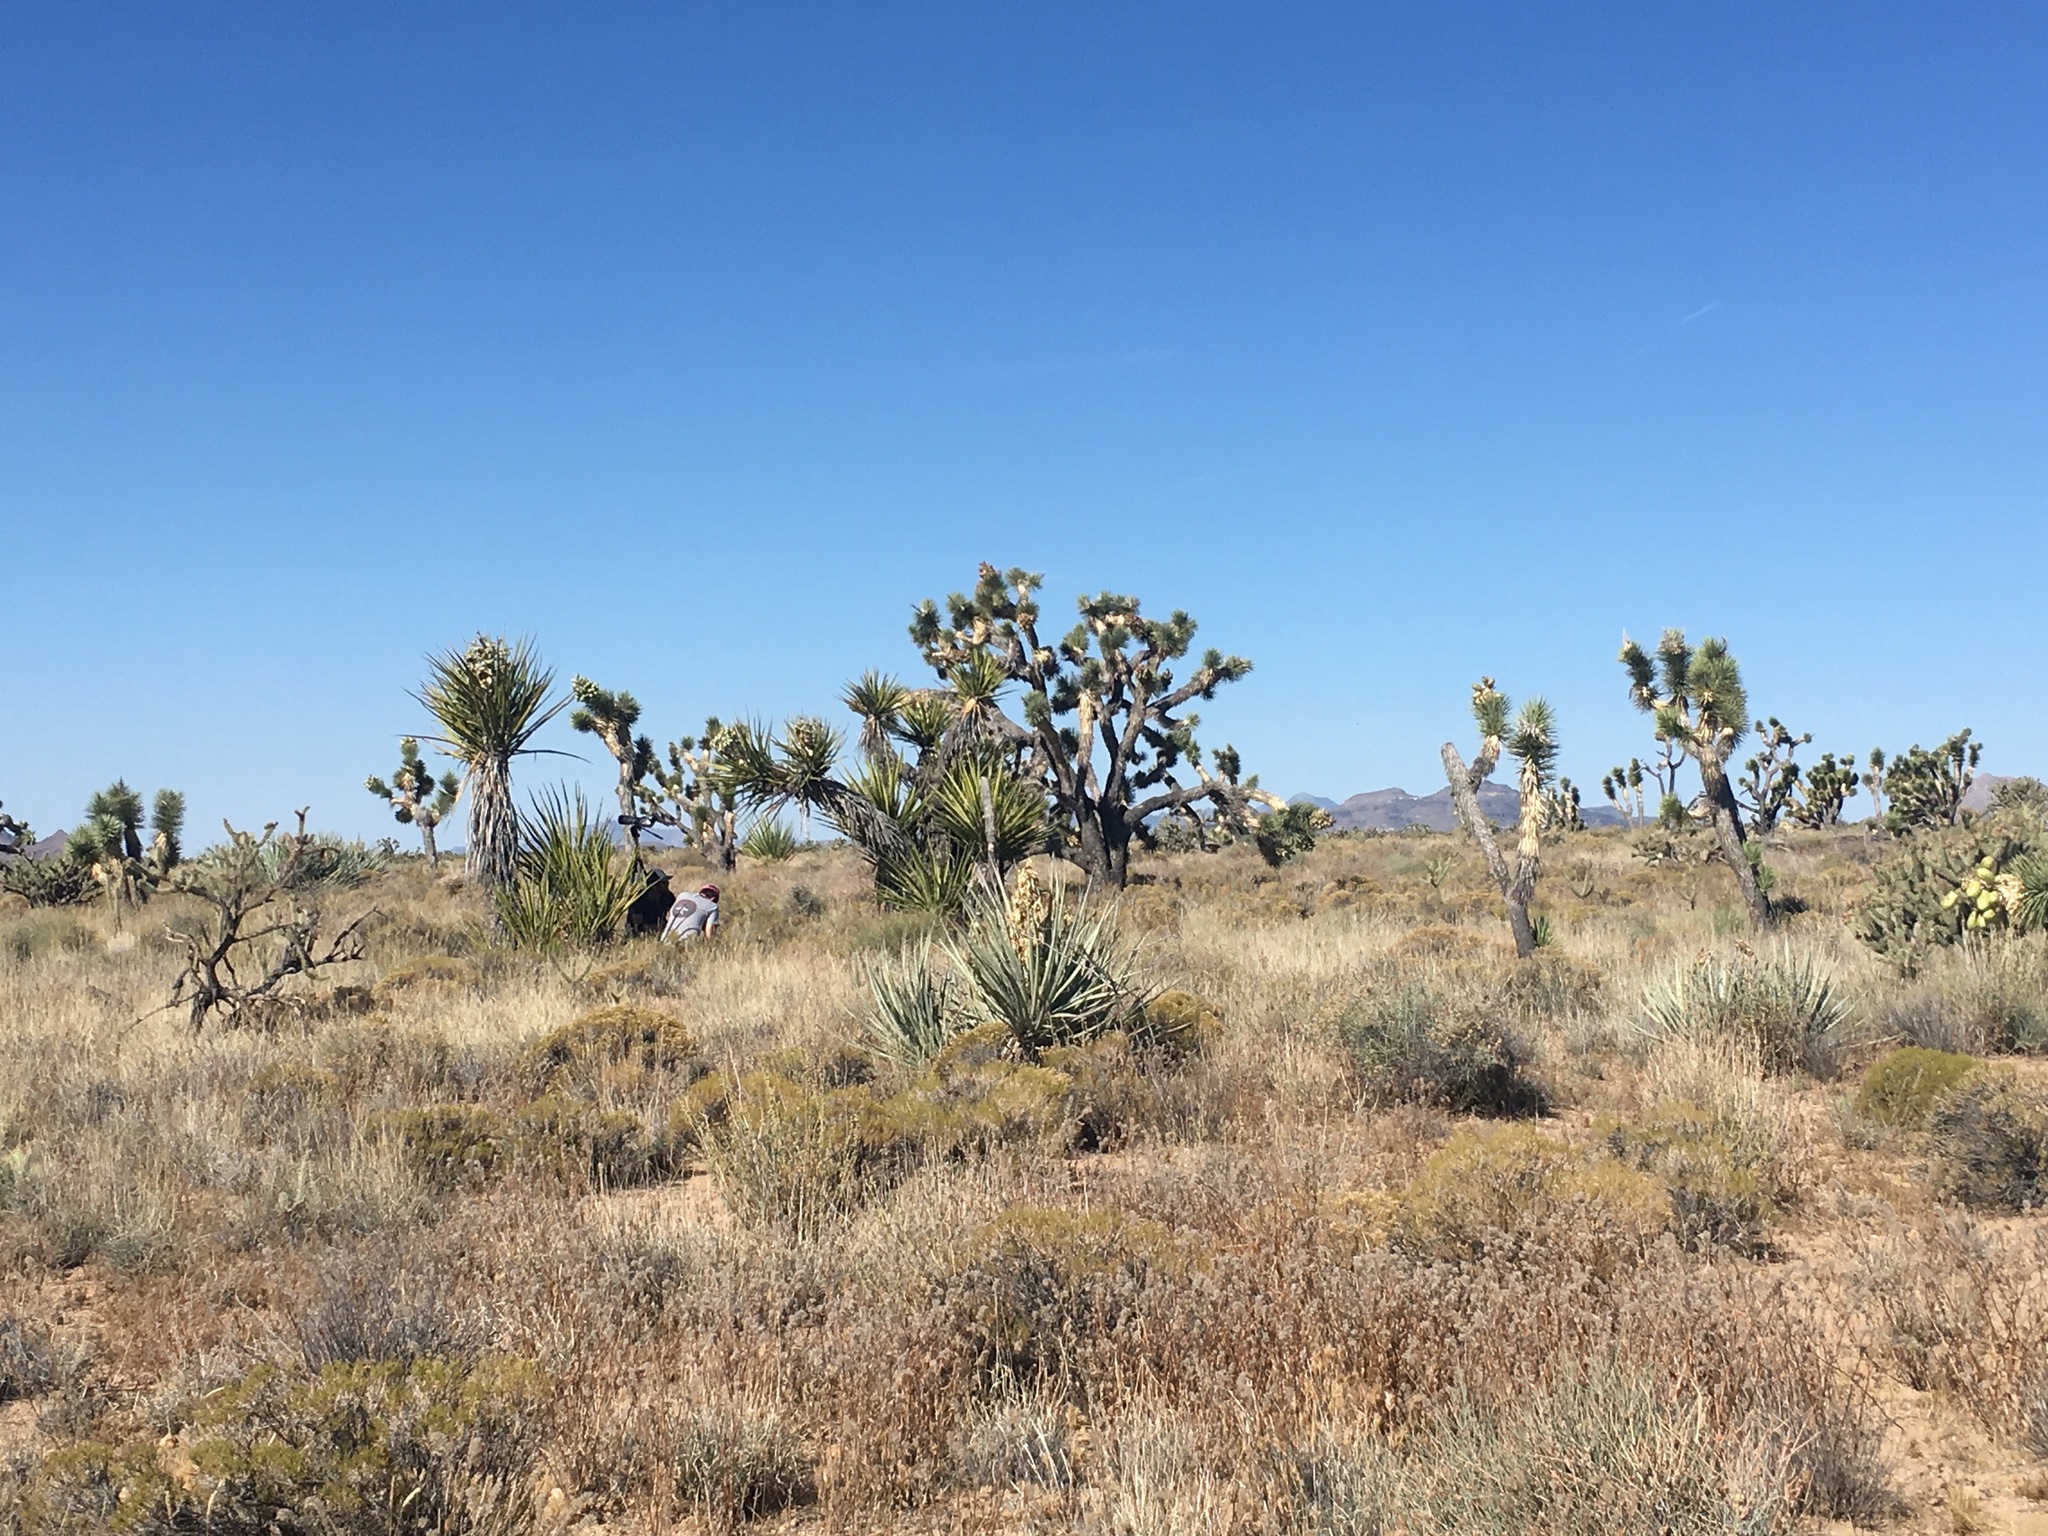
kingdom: Plantae
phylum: Tracheophyta
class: Liliopsida
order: Asparagales
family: Asparagaceae
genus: Yucca
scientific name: Yucca brevifolia
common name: Joshua tree
